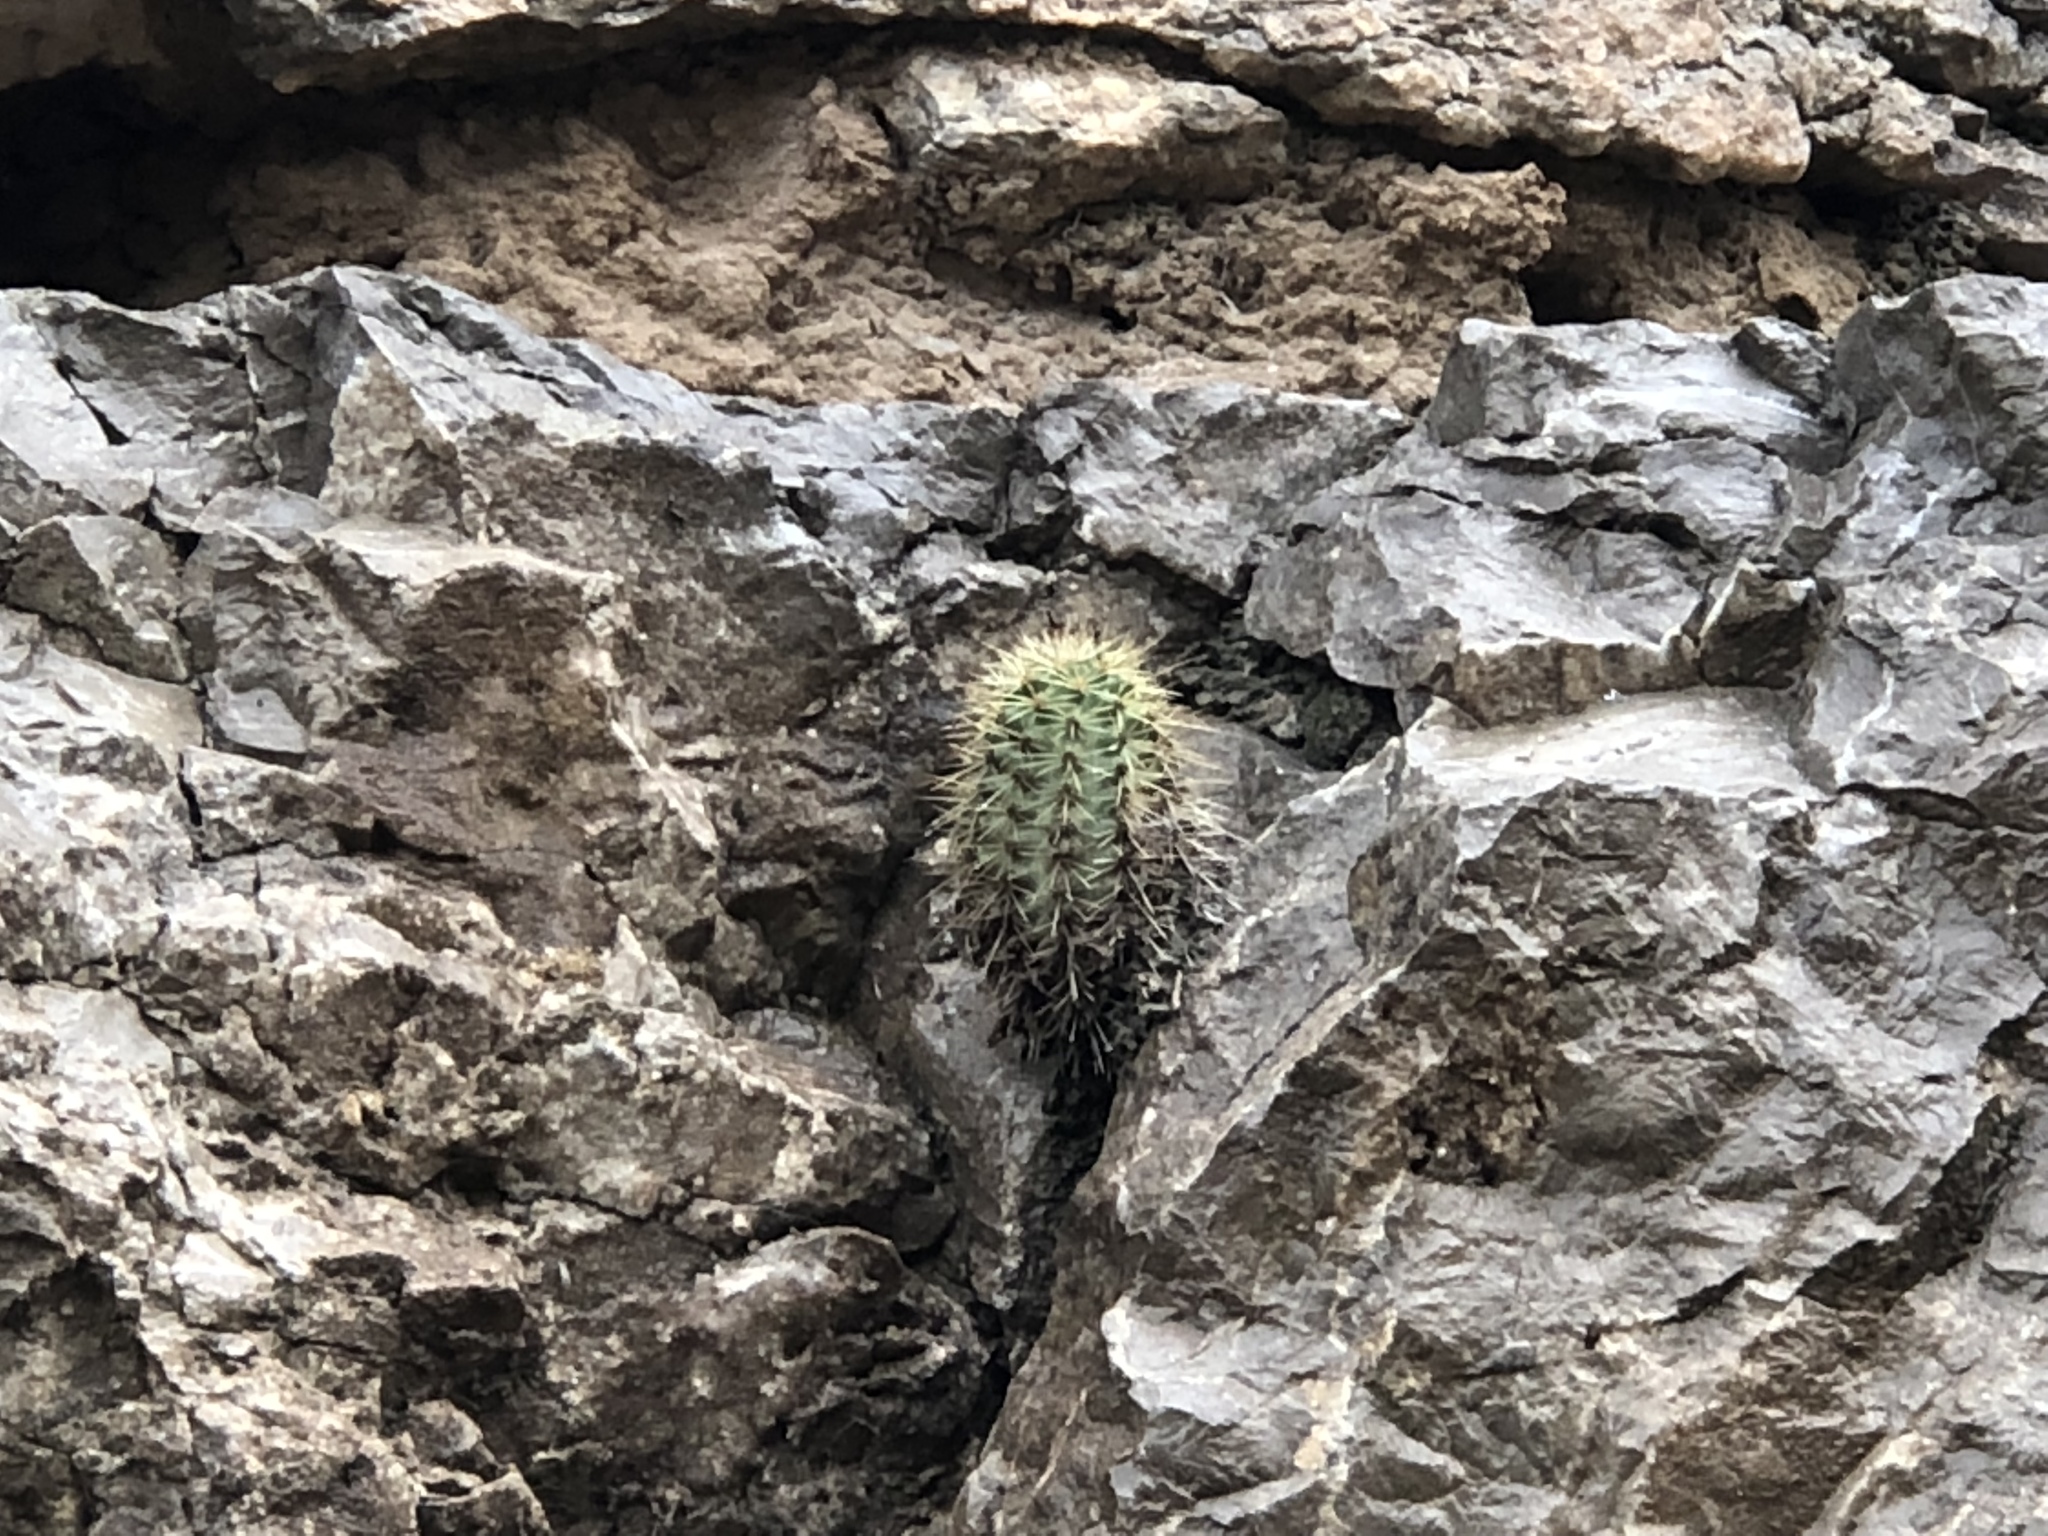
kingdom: Plantae
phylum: Tracheophyta
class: Magnoliopsida
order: Caryophyllales
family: Cactaceae
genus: Echinocereus
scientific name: Echinocereus coccineus
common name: Scarlet hedgehog cactus
